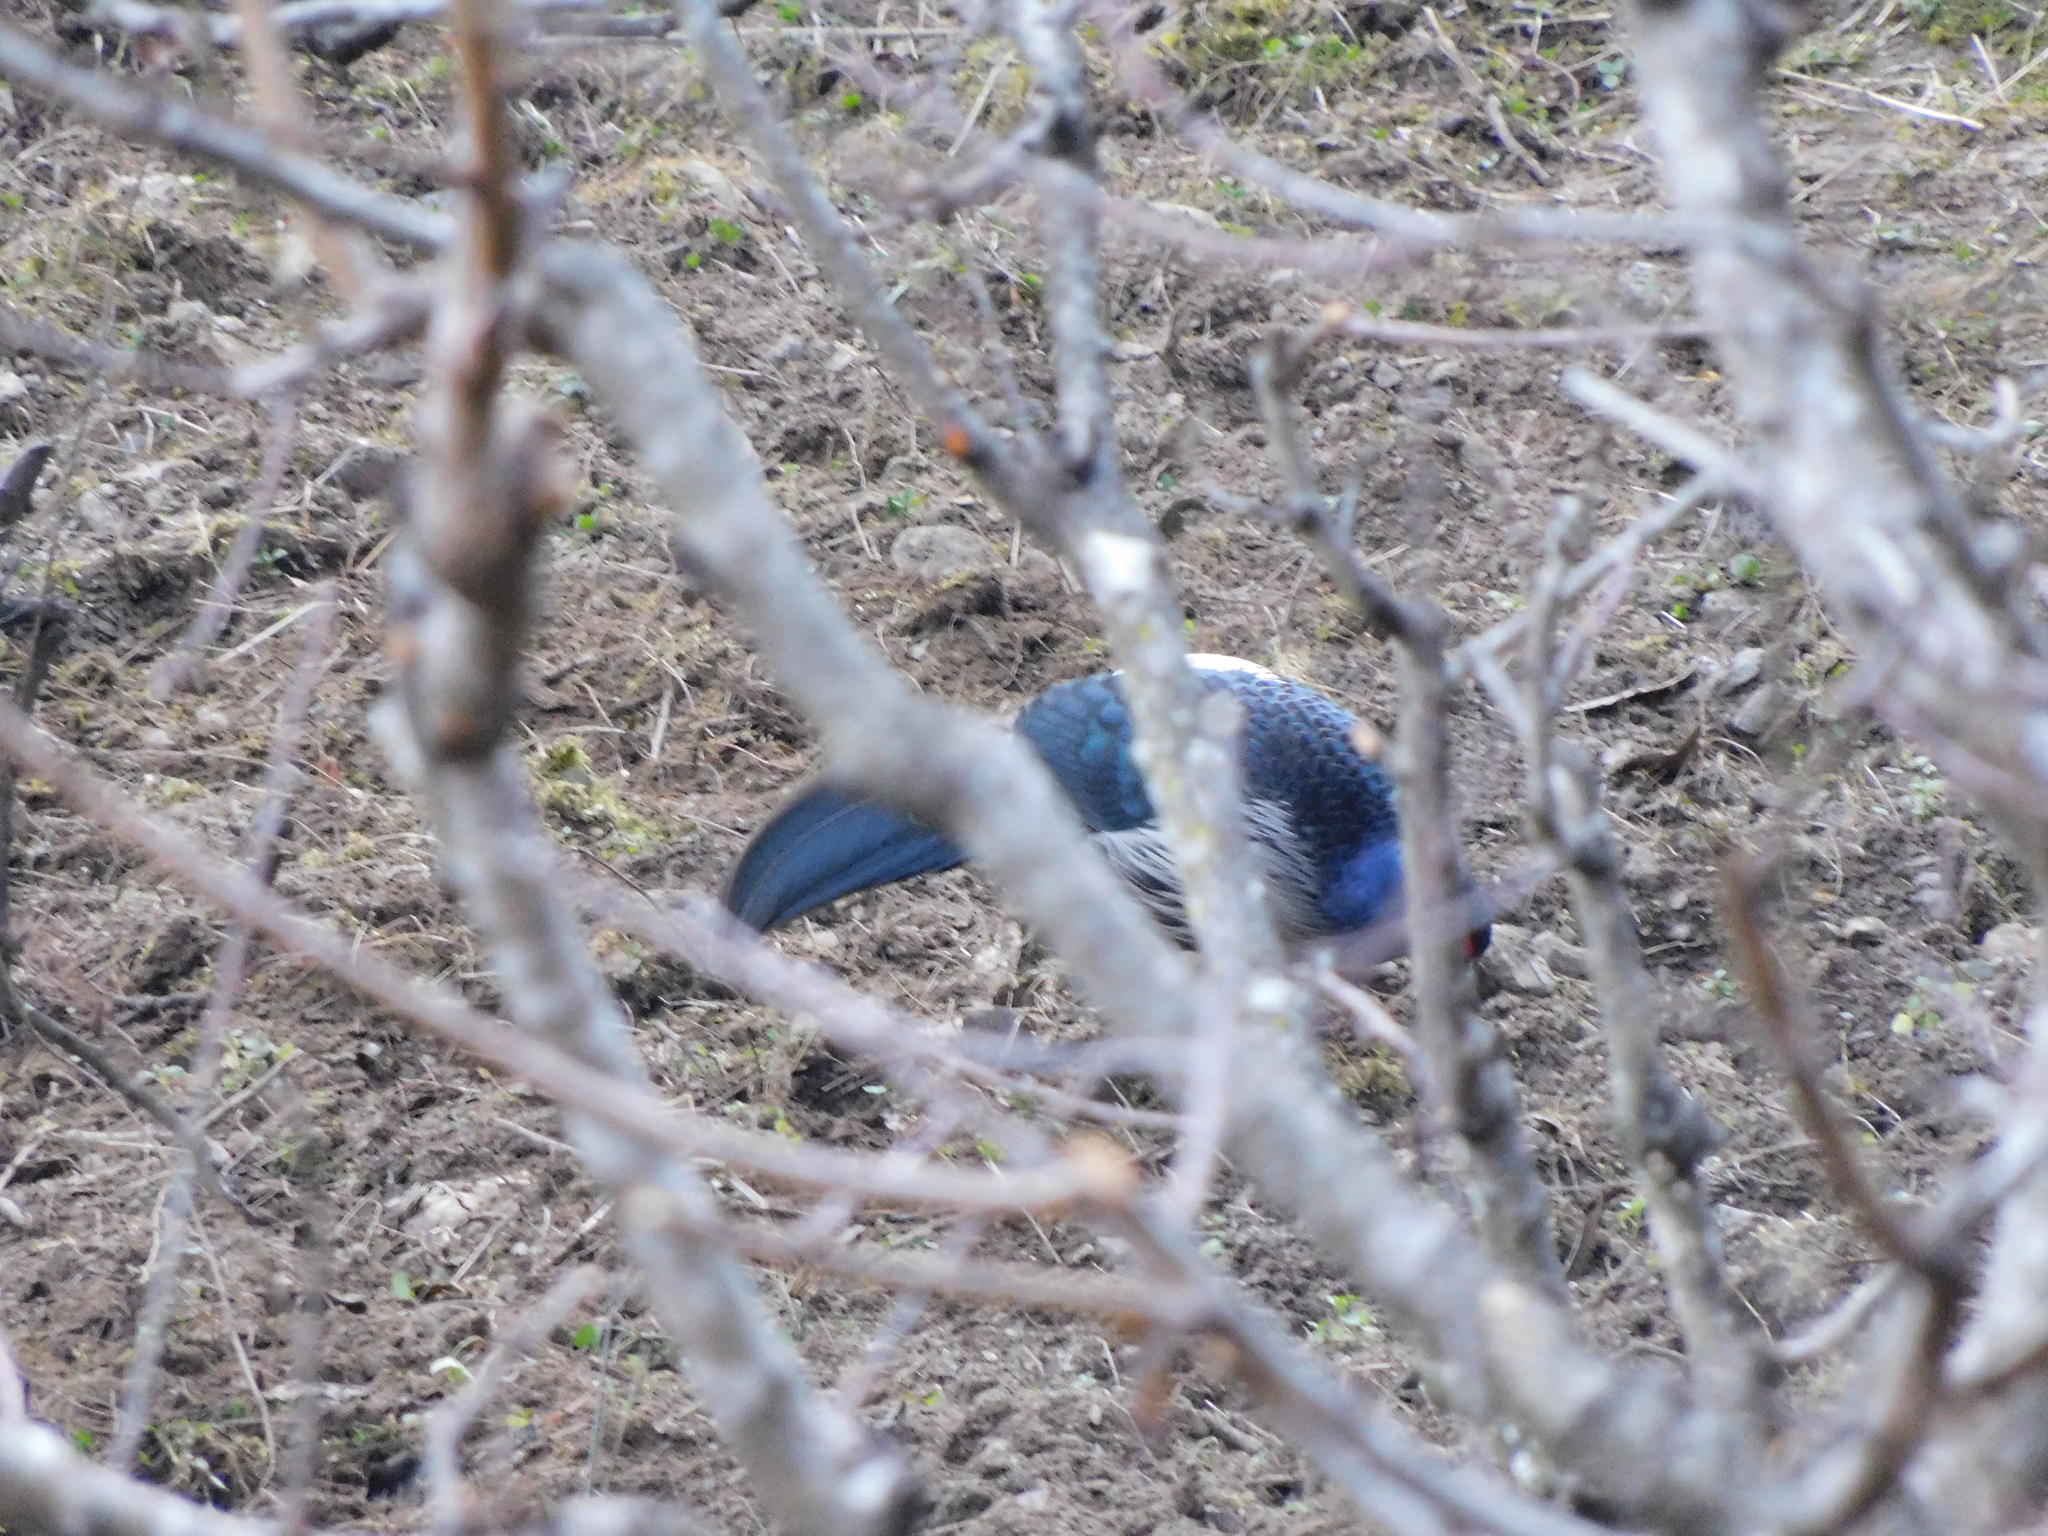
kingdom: Animalia
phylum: Chordata
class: Aves
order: Galliformes
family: Phasianidae
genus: Lophura
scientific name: Lophura leucomelanos
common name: Kalij pheasant
